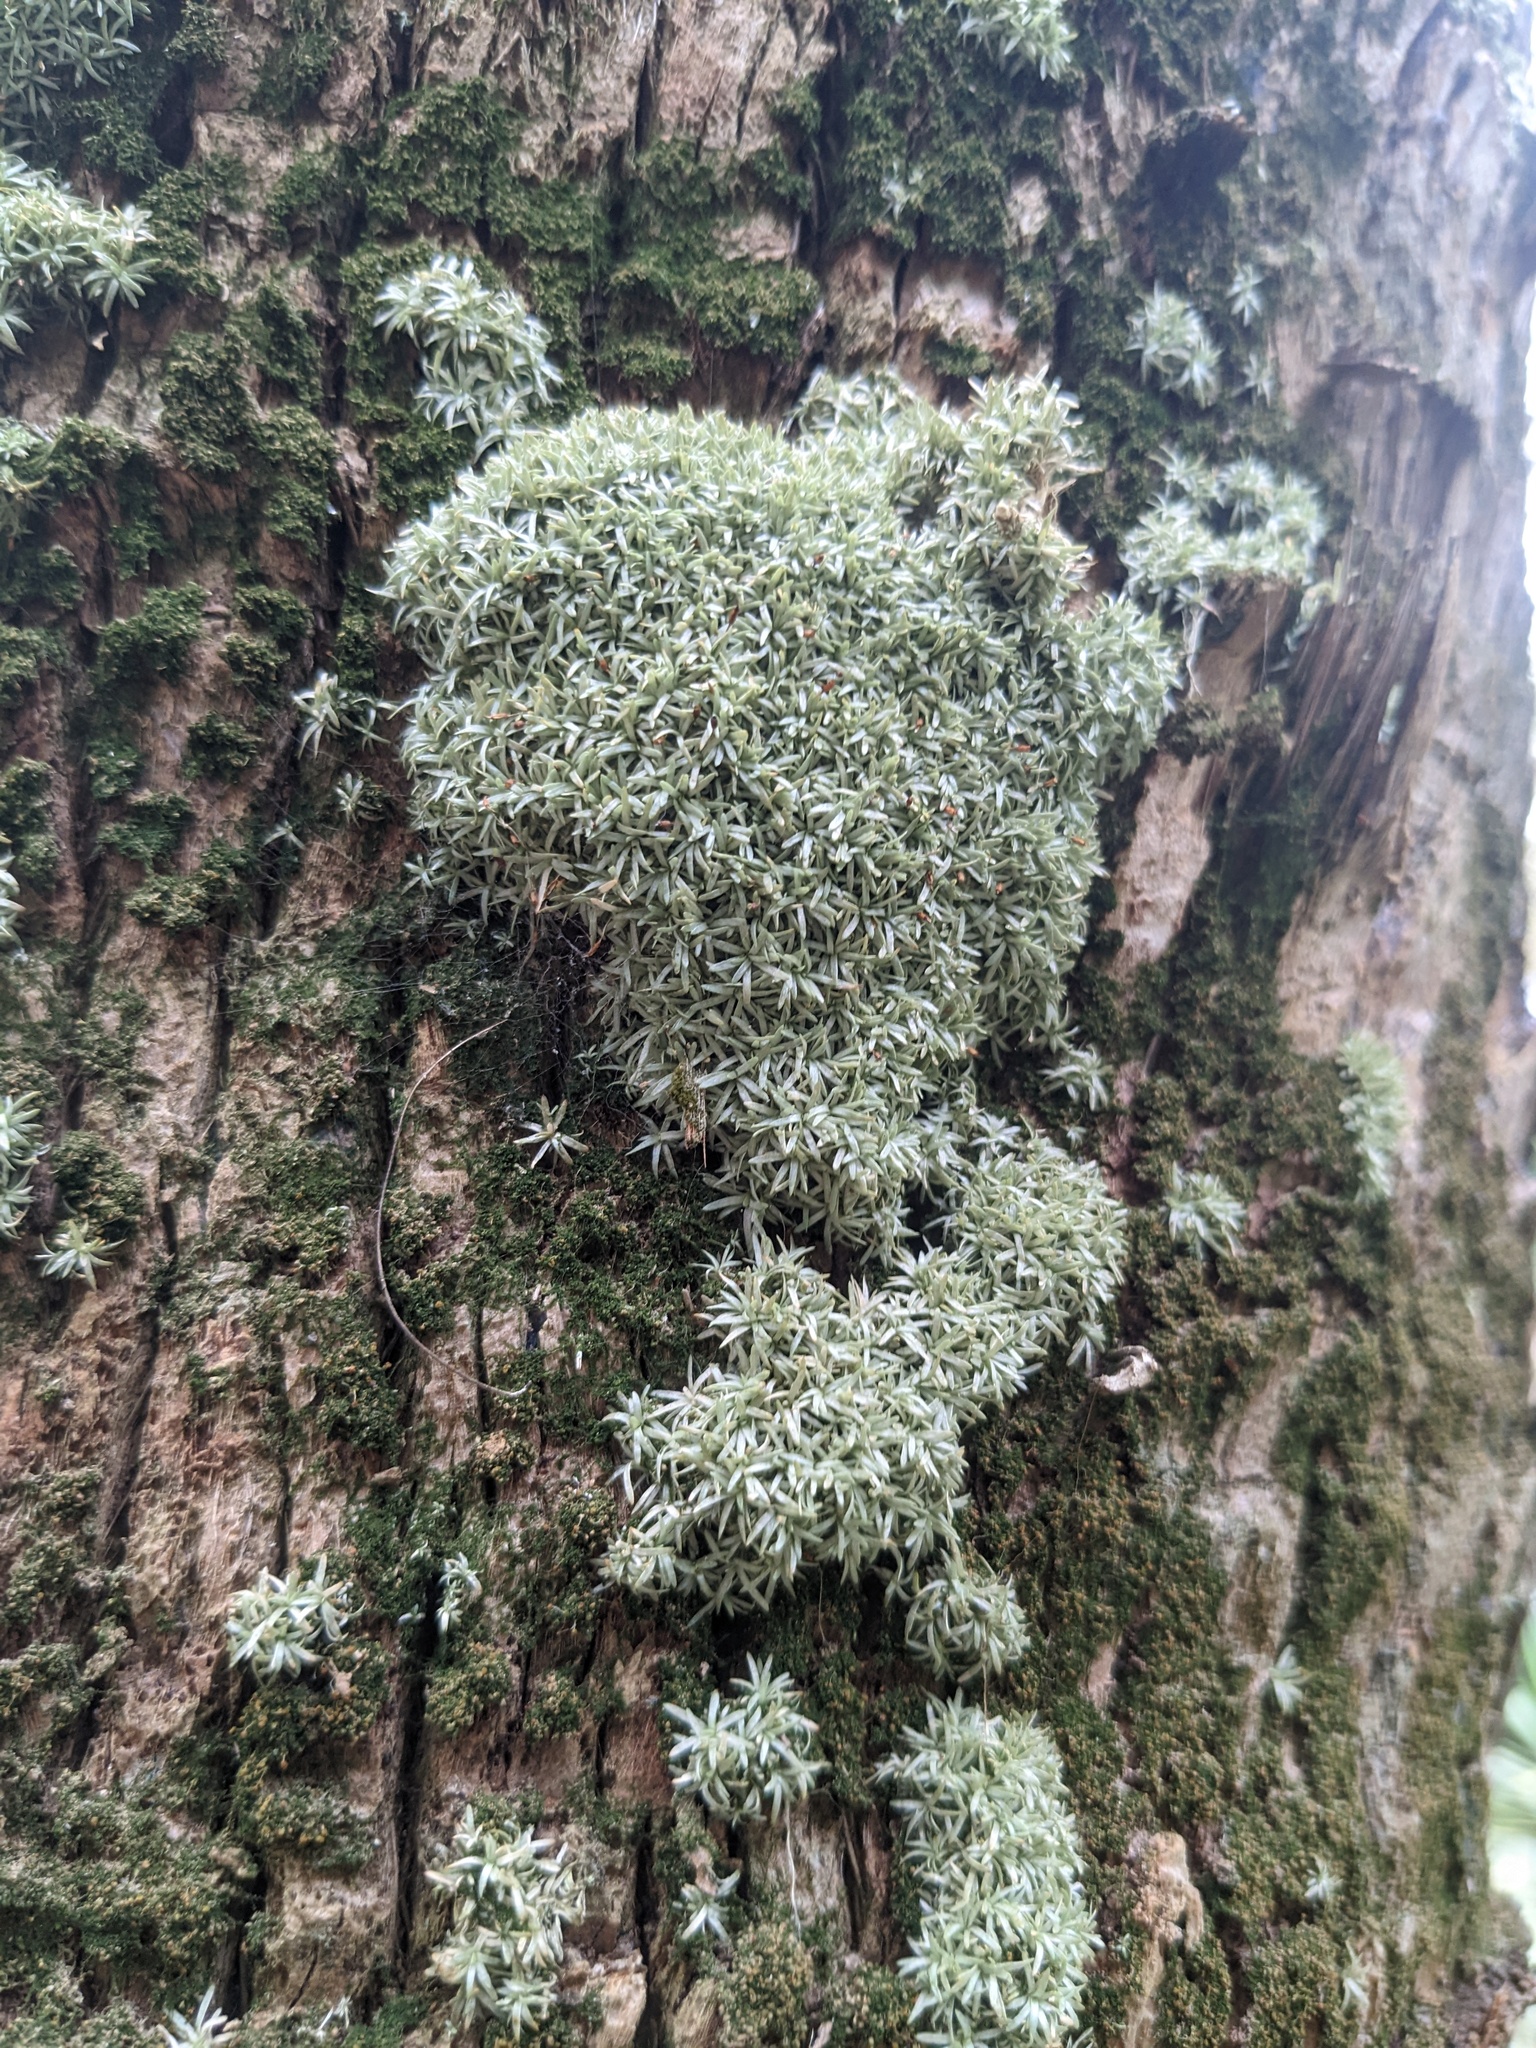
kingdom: Plantae
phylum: Bryophyta
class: Bryopsida
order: Dicranales
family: Octoblepharaceae
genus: Octoblepharum
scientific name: Octoblepharum albidum
